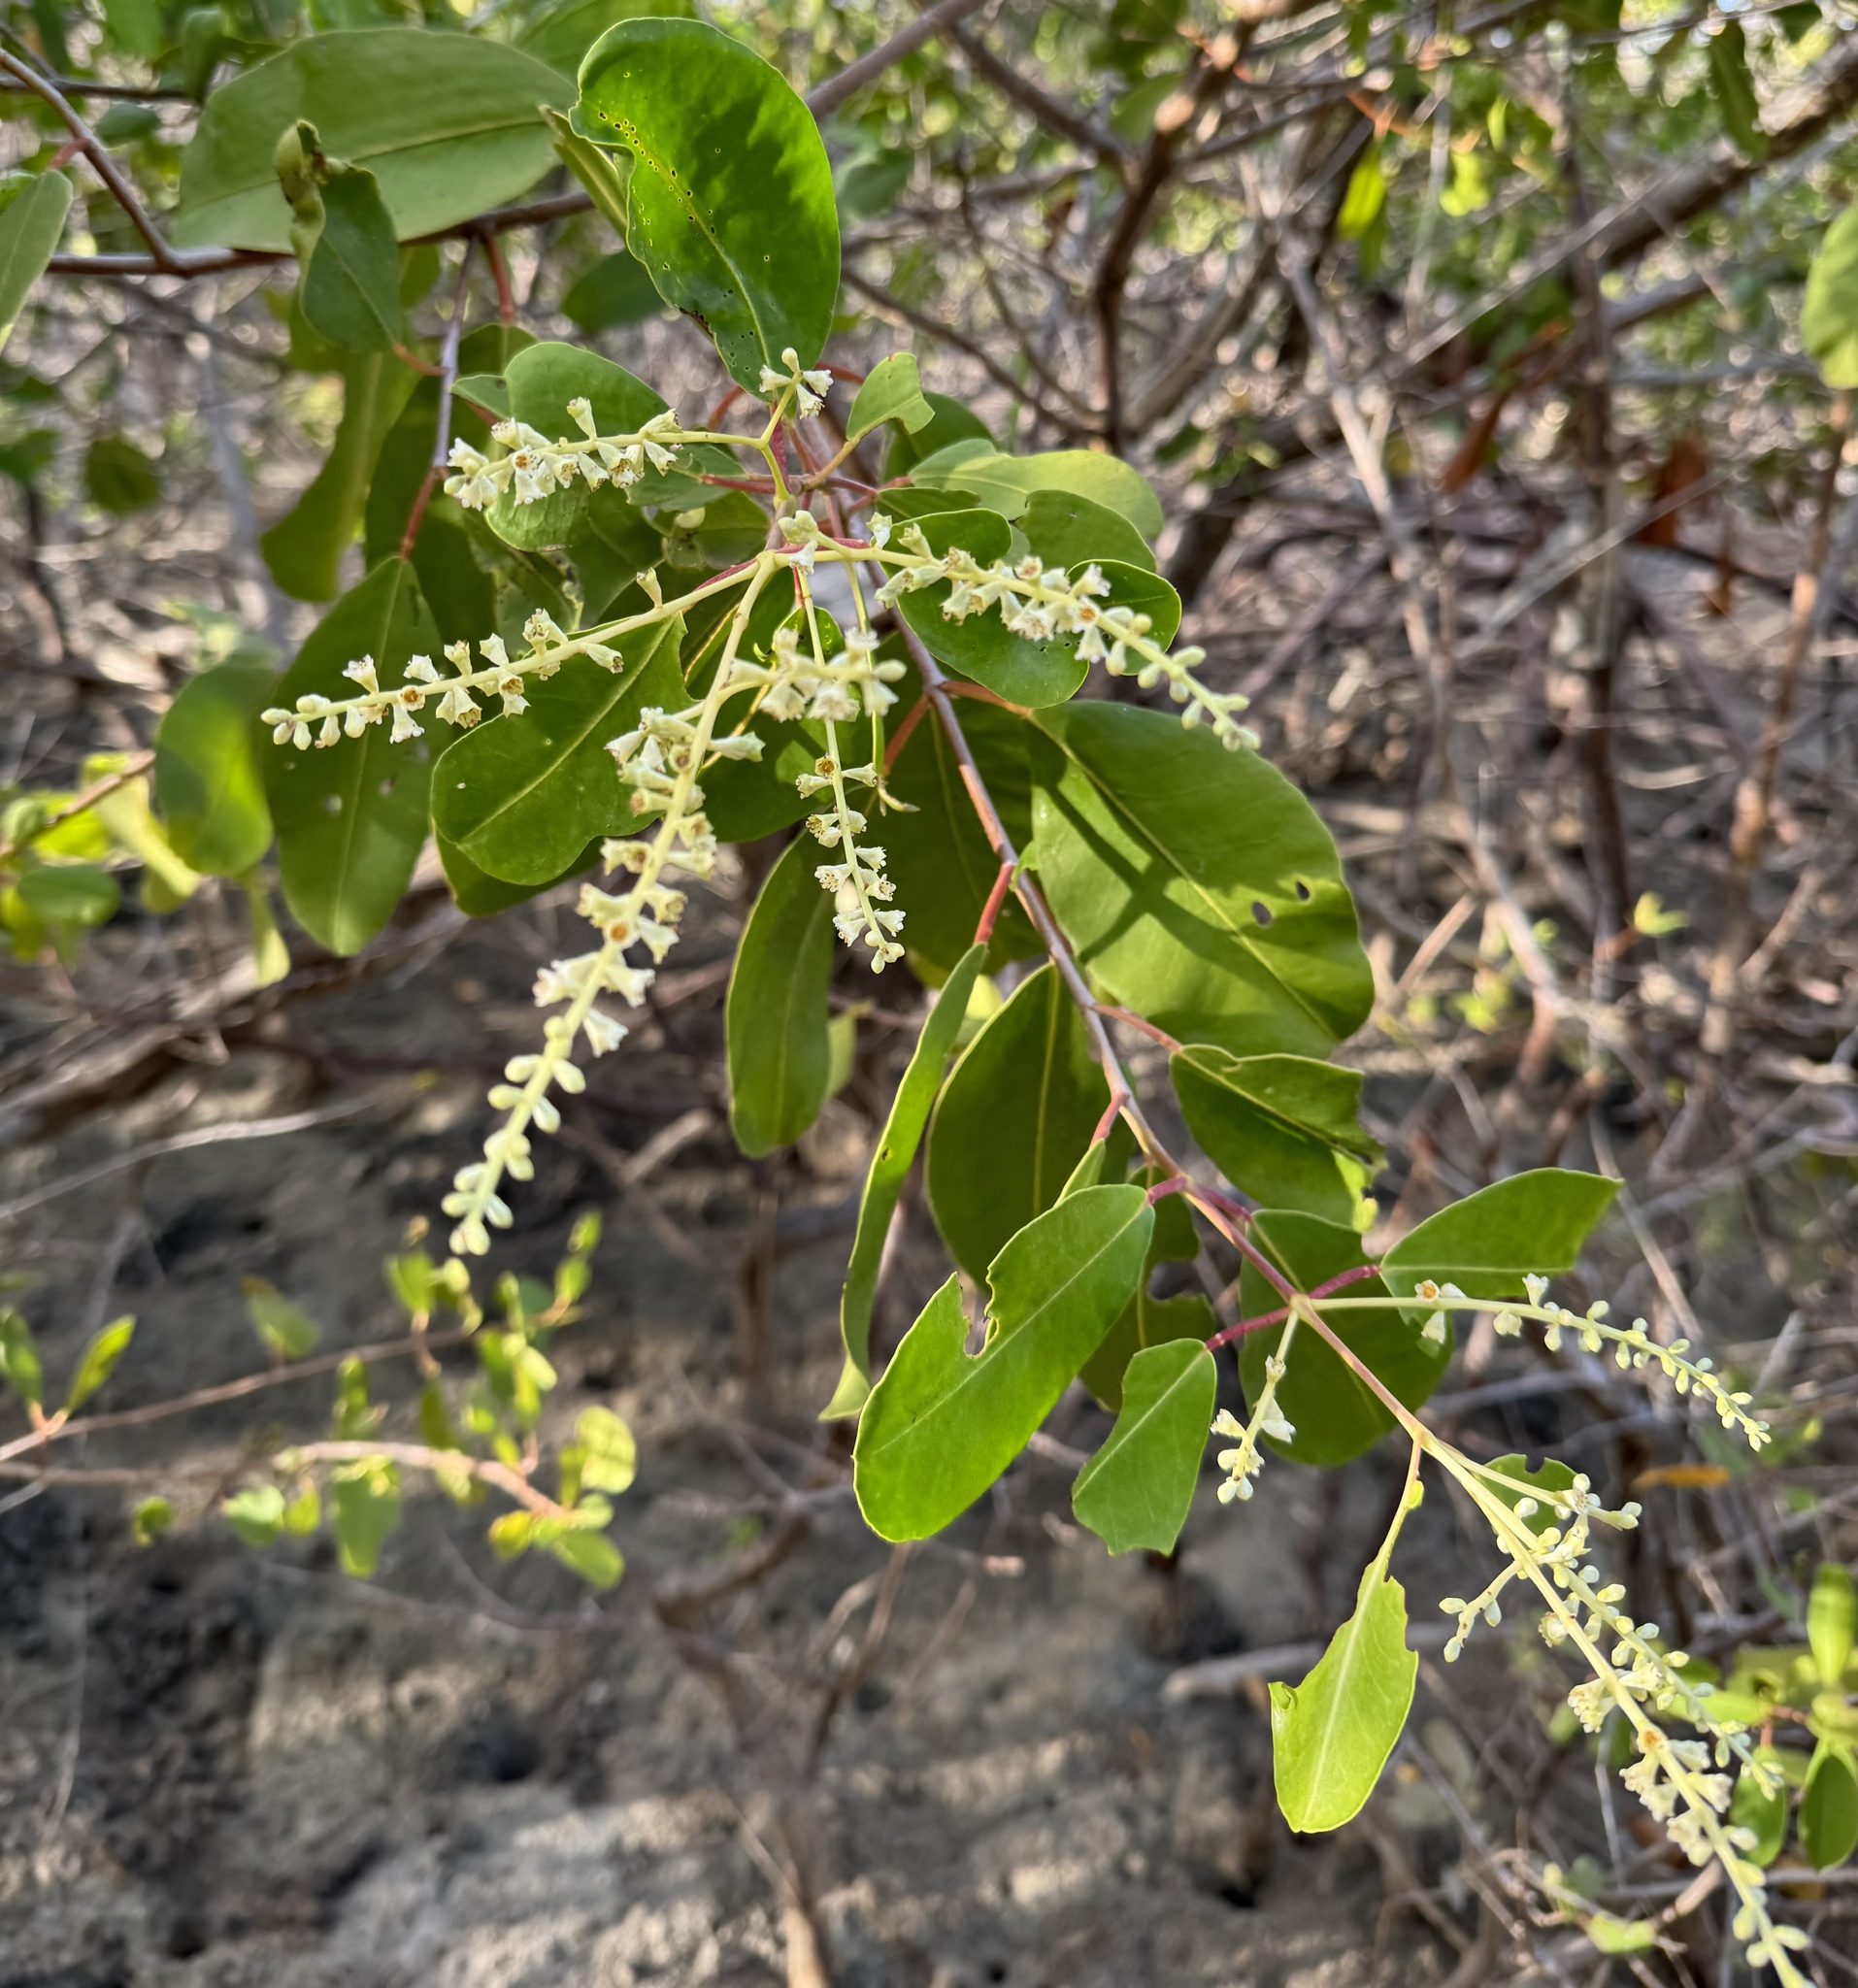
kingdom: Plantae
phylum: Tracheophyta
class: Magnoliopsida
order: Myrtales
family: Combretaceae
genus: Laguncularia
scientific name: Laguncularia racemosa
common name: White mangrove
